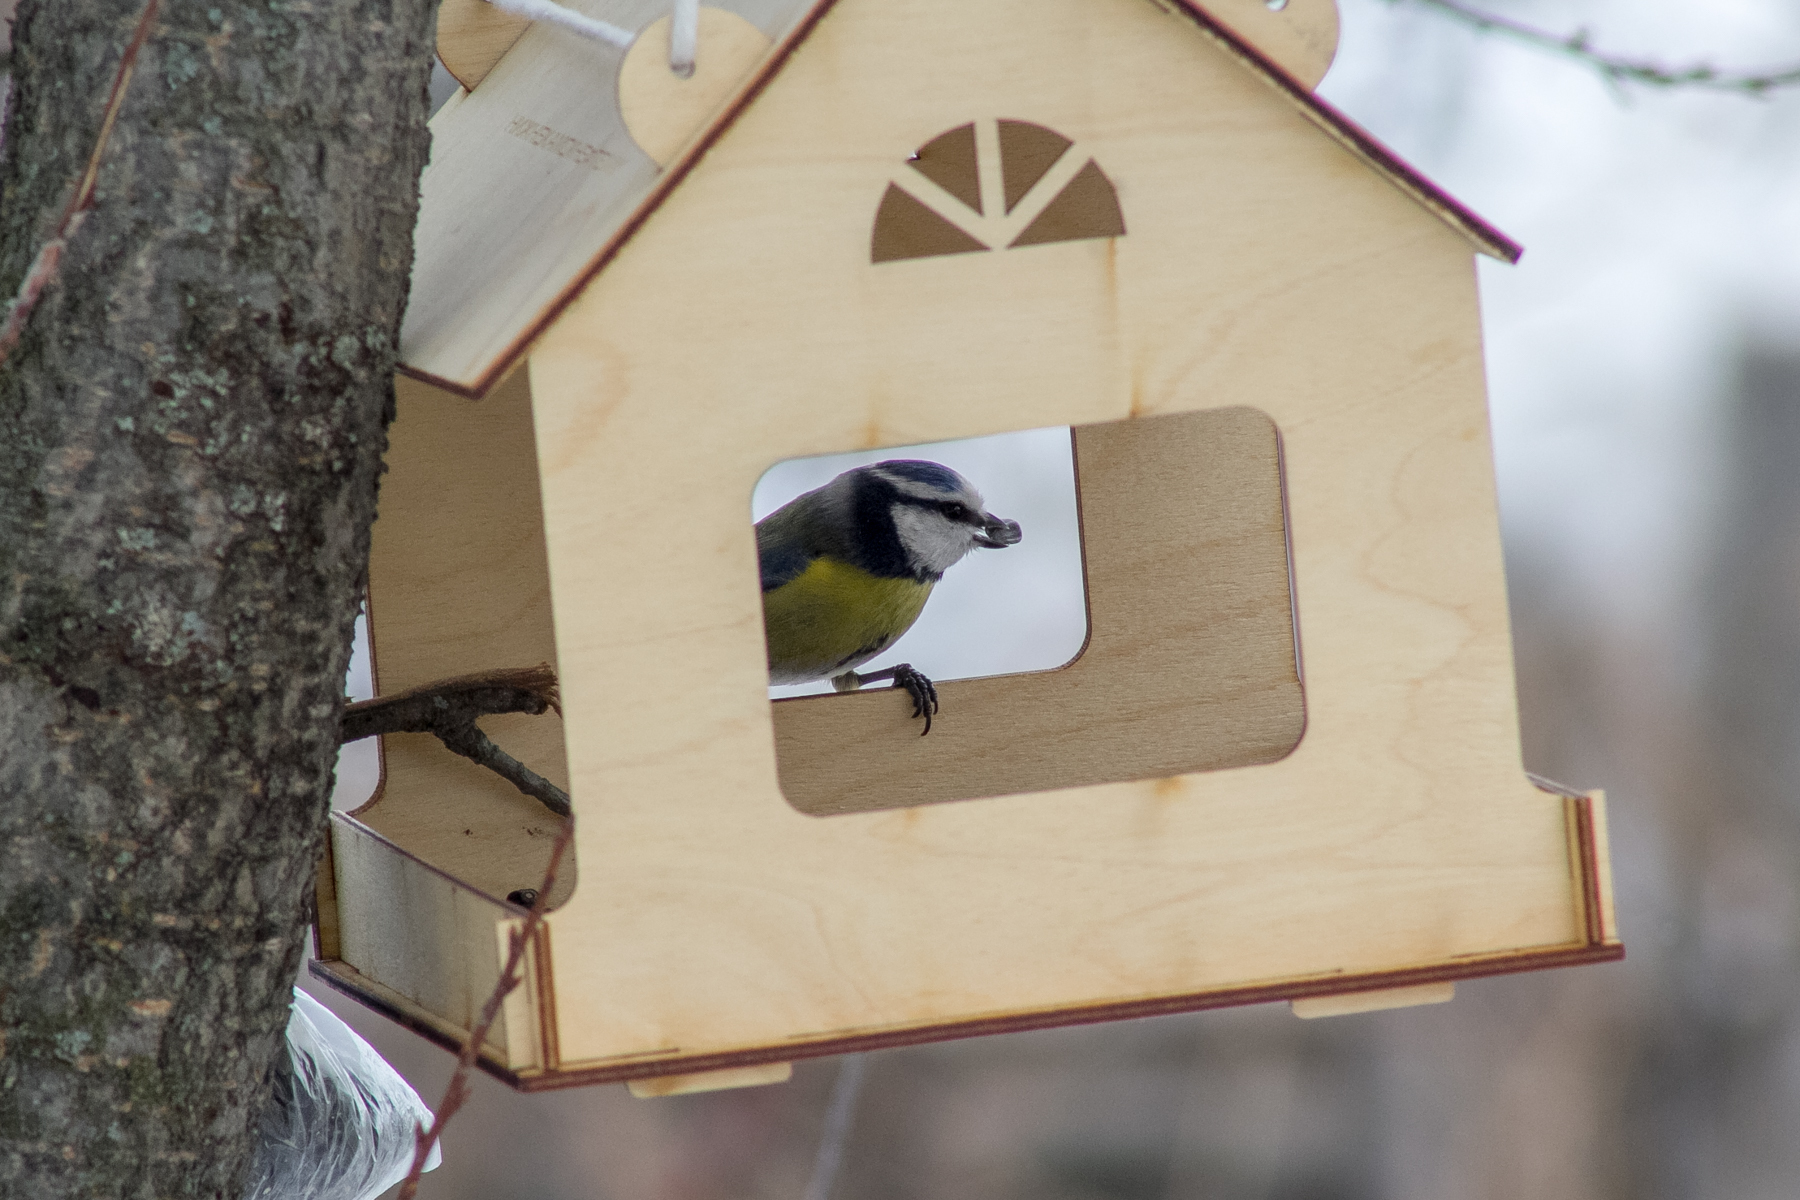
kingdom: Animalia
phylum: Chordata
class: Aves
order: Passeriformes
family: Paridae
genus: Cyanistes
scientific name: Cyanistes caeruleus
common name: Eurasian blue tit
